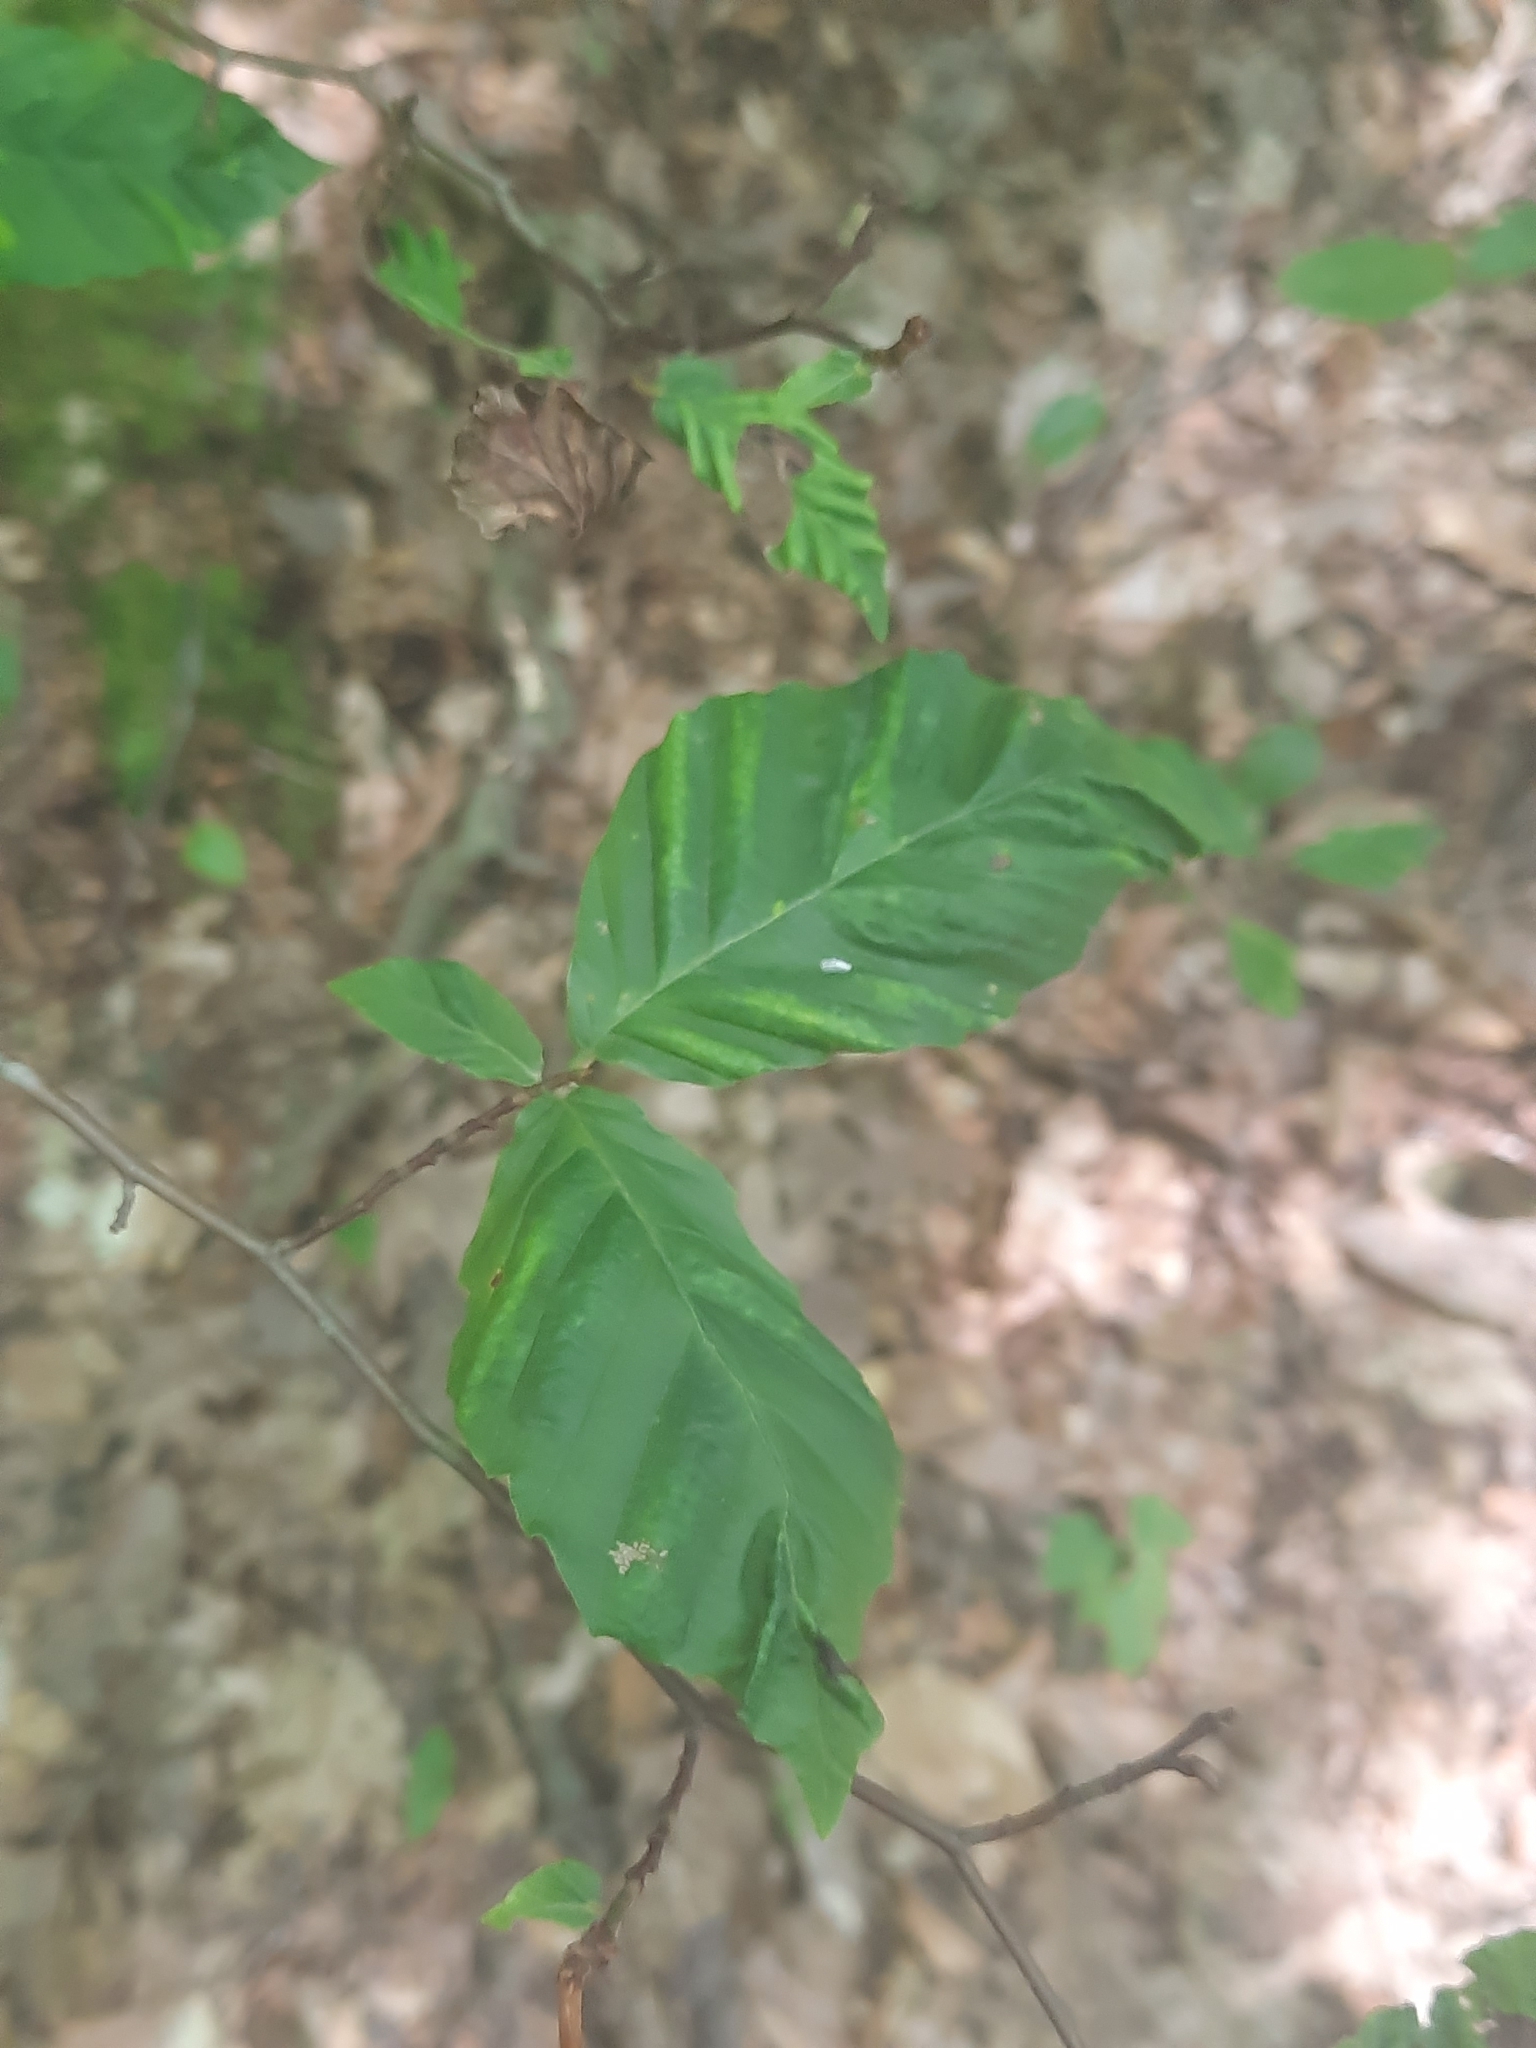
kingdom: Animalia
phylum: Nematoda
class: Chromadorea
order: Rhabditida
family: Anguinidae
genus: Litylenchus
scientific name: Litylenchus crenatae
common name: Beech leaf disease
